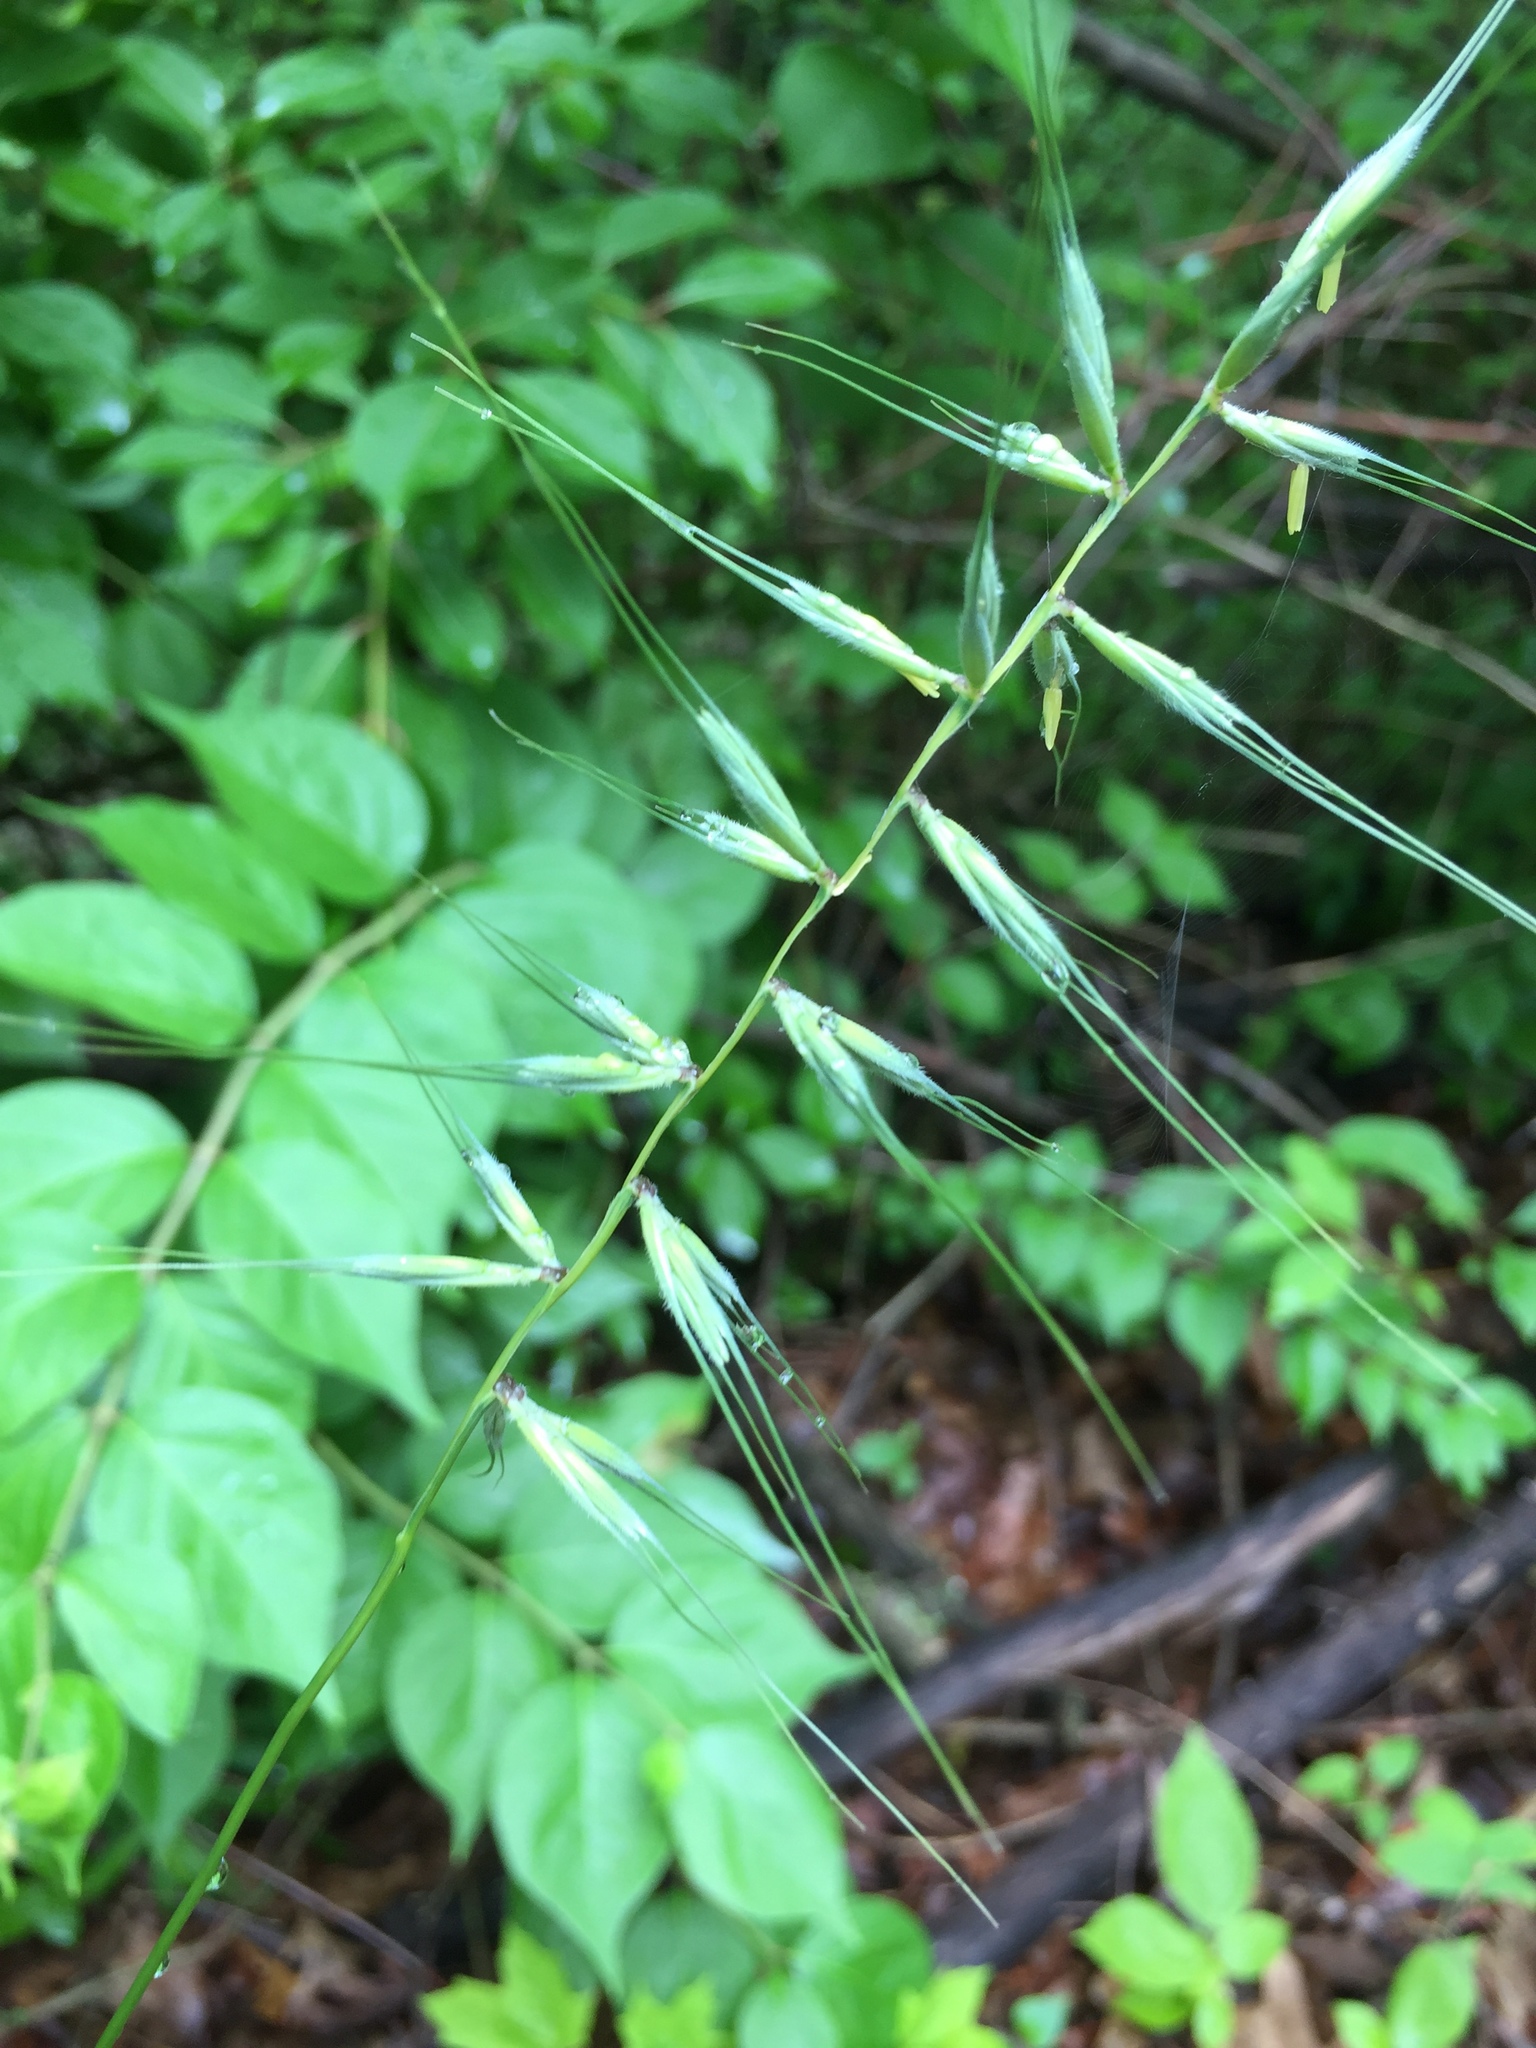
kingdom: Plantae
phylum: Tracheophyta
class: Liliopsida
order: Poales
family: Poaceae
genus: Elymus
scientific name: Elymus hystrix
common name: Bottlebrush grass
